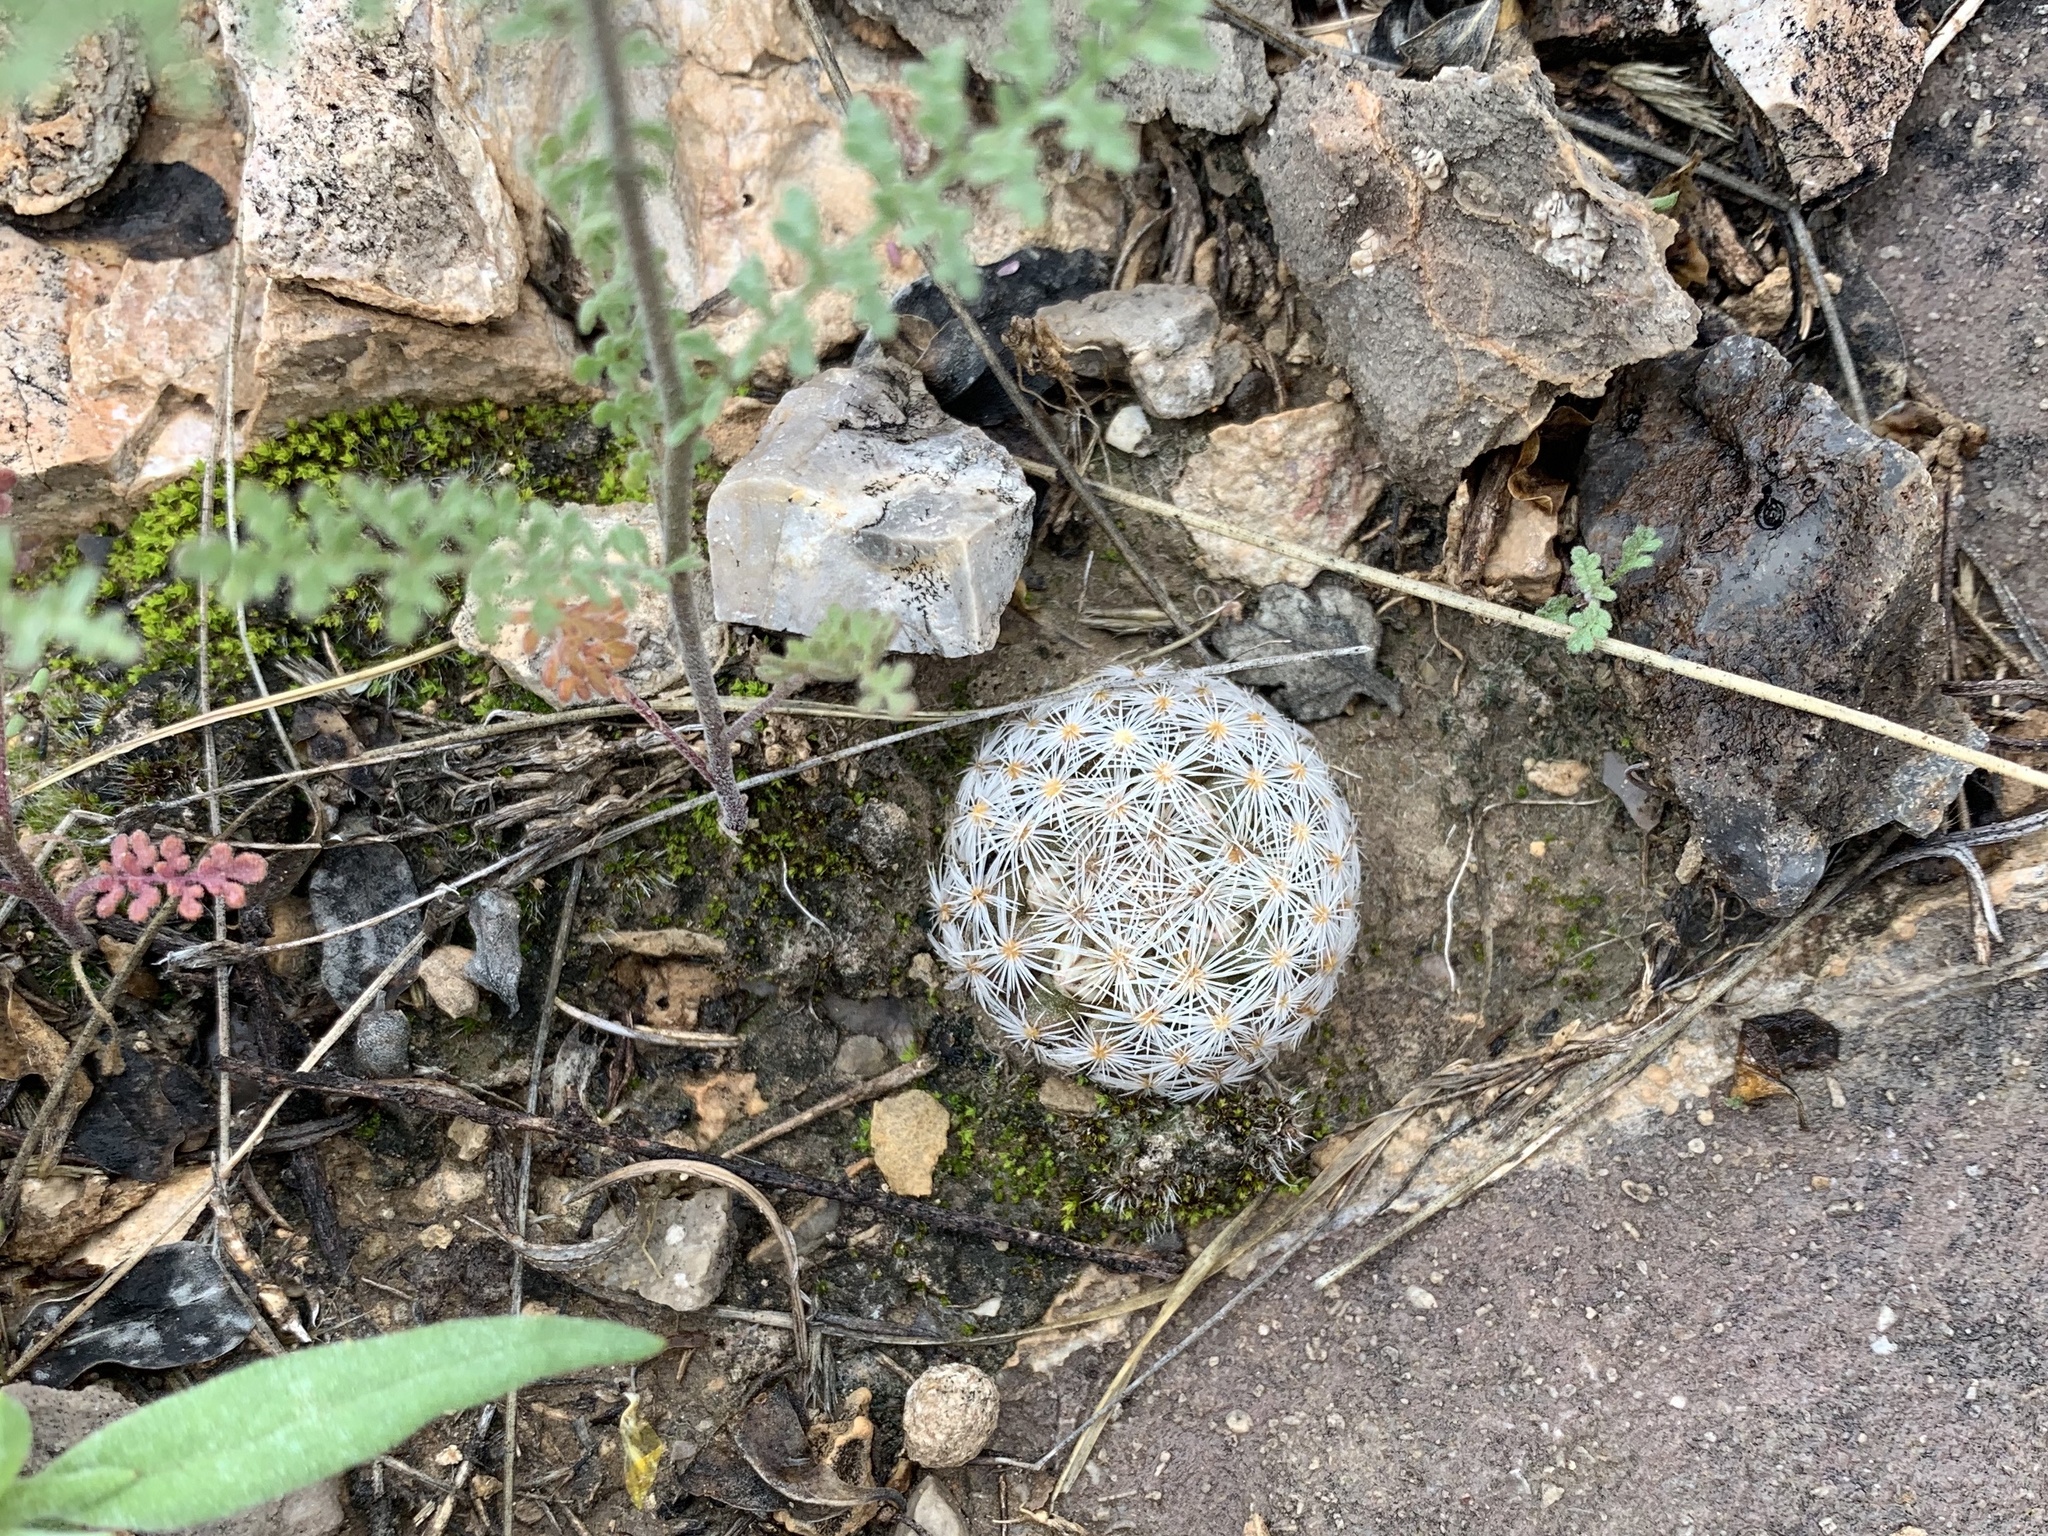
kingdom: Plantae
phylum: Tracheophyta
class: Magnoliopsida
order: Caryophyllales
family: Cactaceae
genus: Mammillaria
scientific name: Mammillaria lasiacantha
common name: Lace-spine nipple cactus
